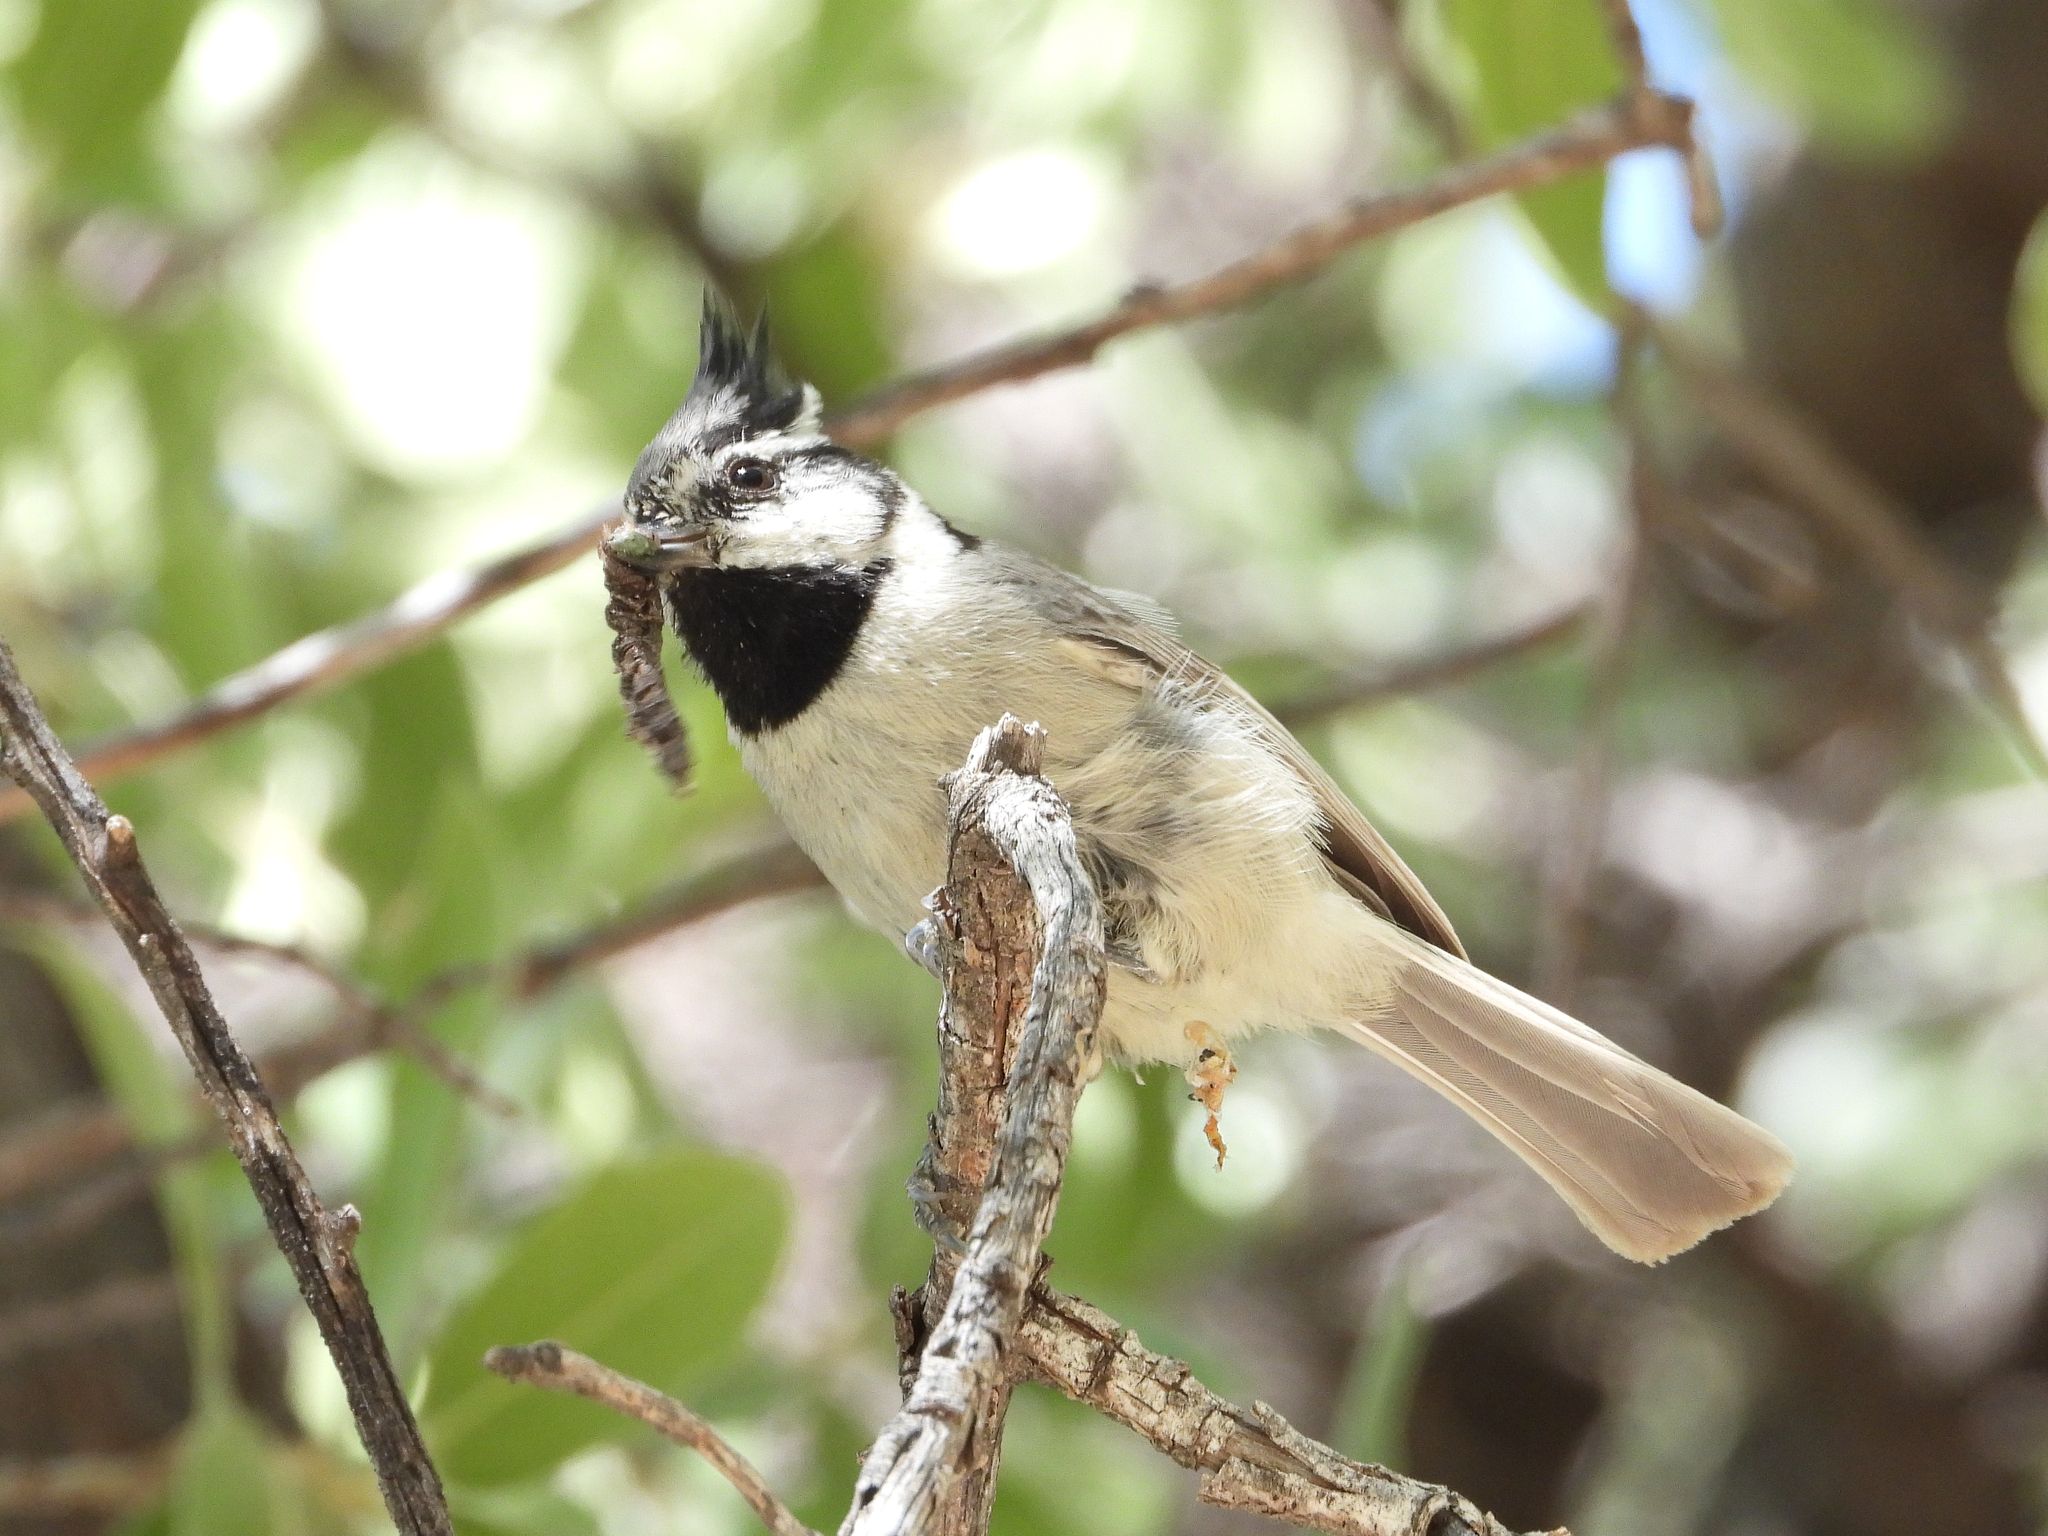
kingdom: Animalia
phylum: Chordata
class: Aves
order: Passeriformes
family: Paridae
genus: Baeolophus
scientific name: Baeolophus wollweberi
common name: Bridled titmouse
